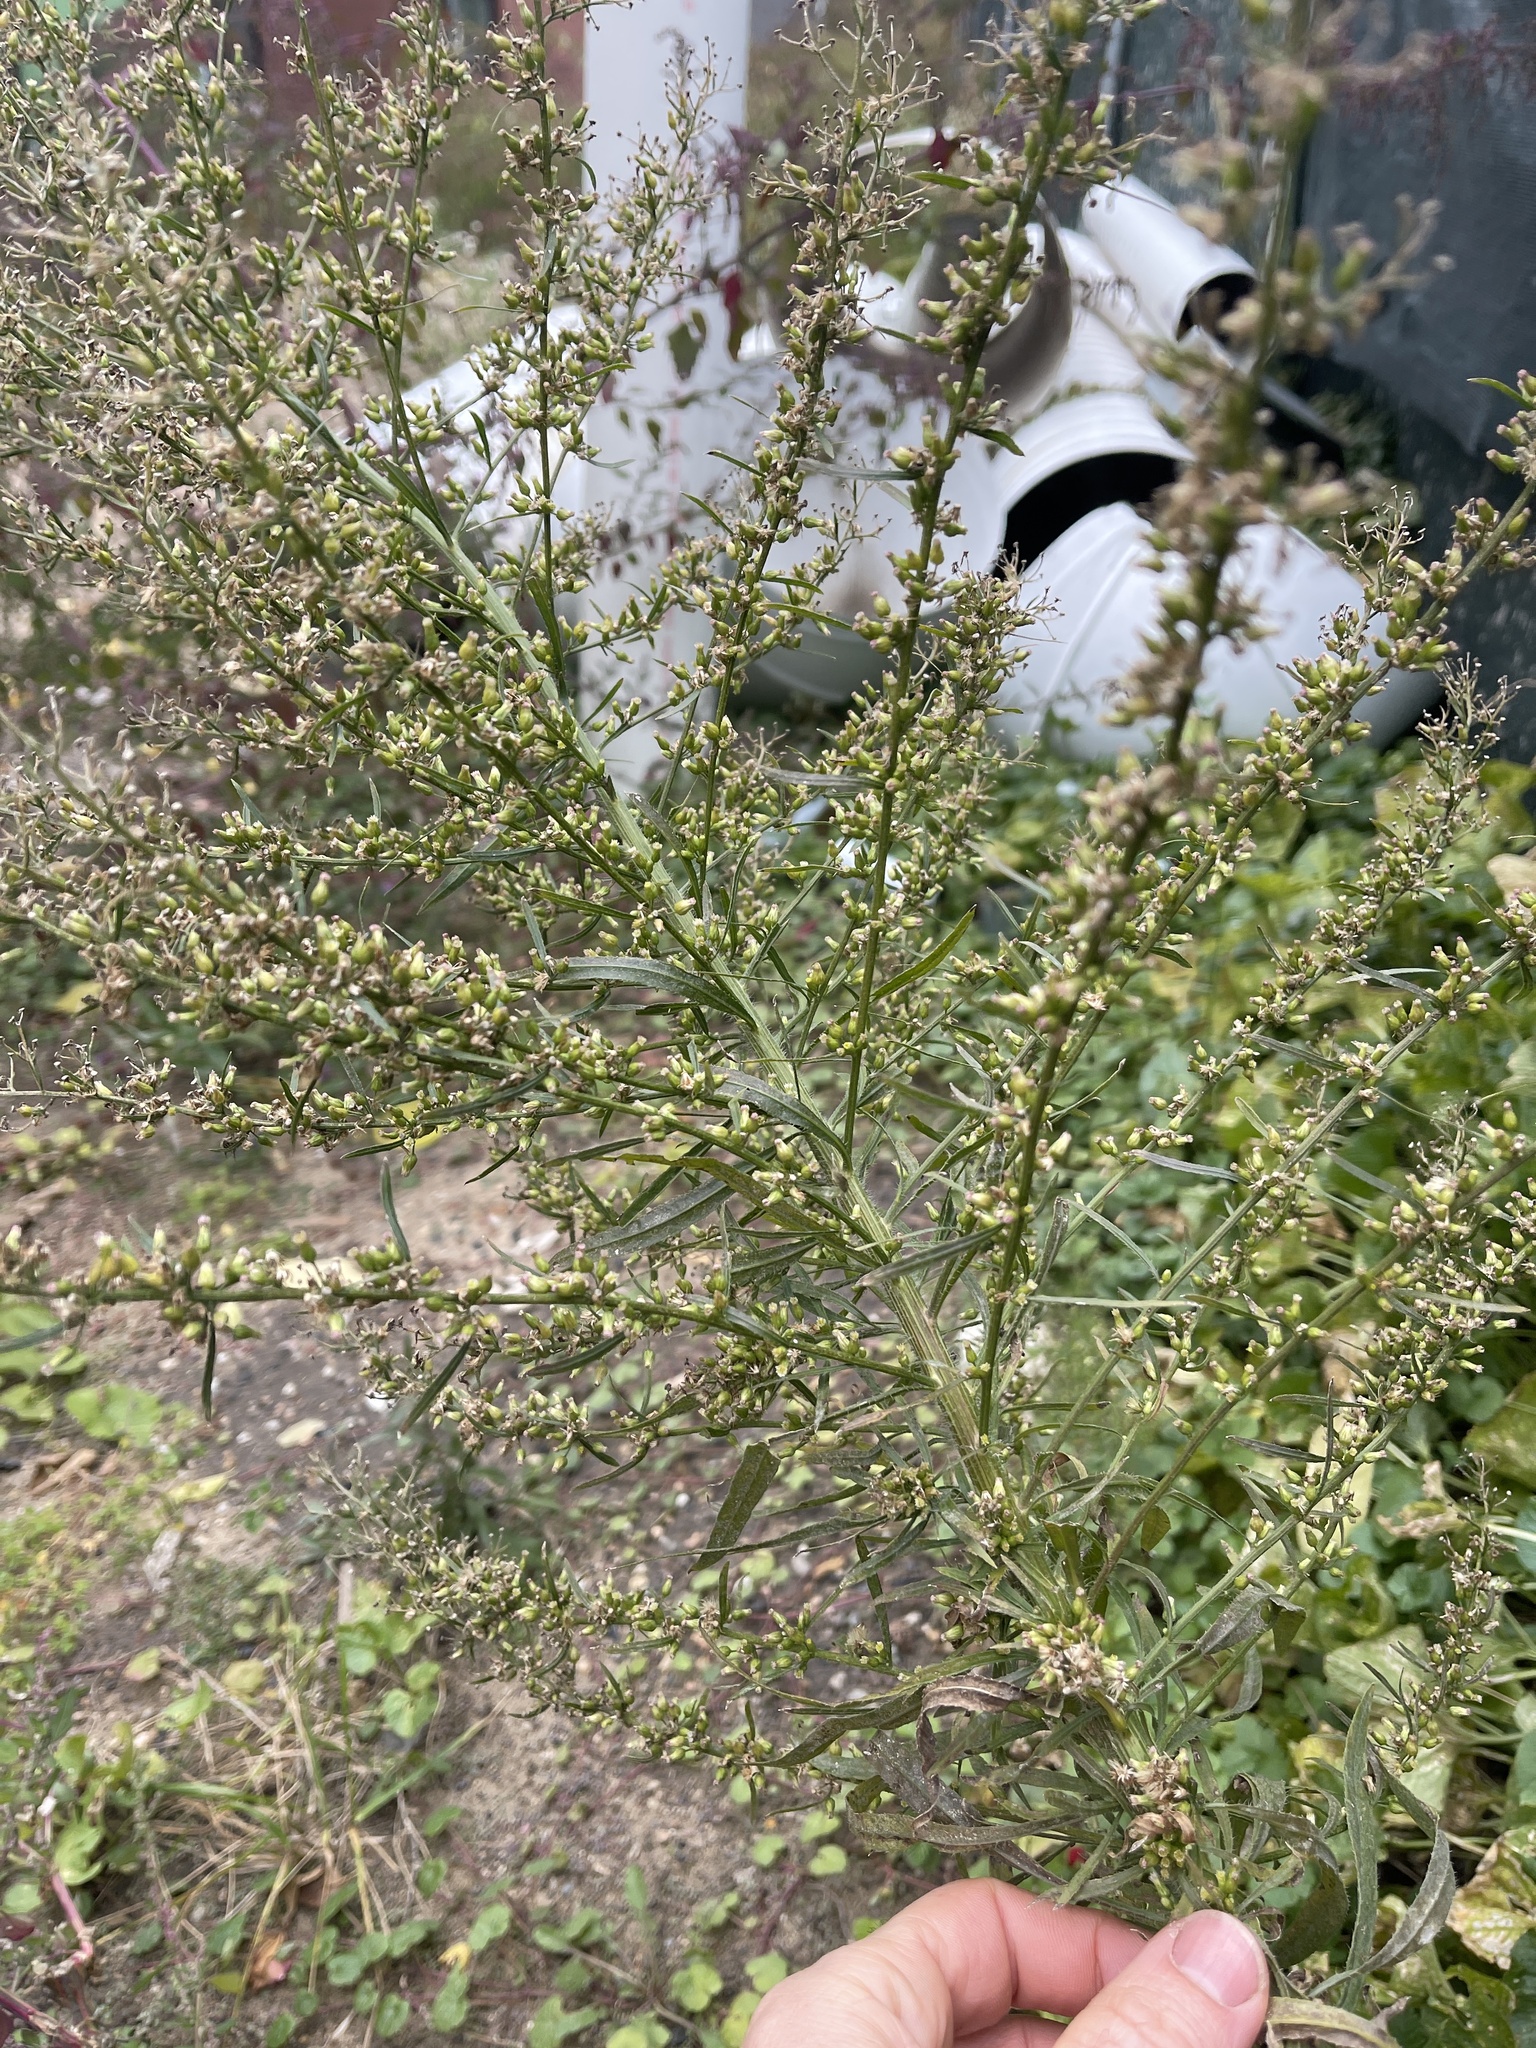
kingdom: Plantae
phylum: Tracheophyta
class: Magnoliopsida
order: Asterales
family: Asteraceae
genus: Erigeron
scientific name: Erigeron canadensis
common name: Canadian fleabane
